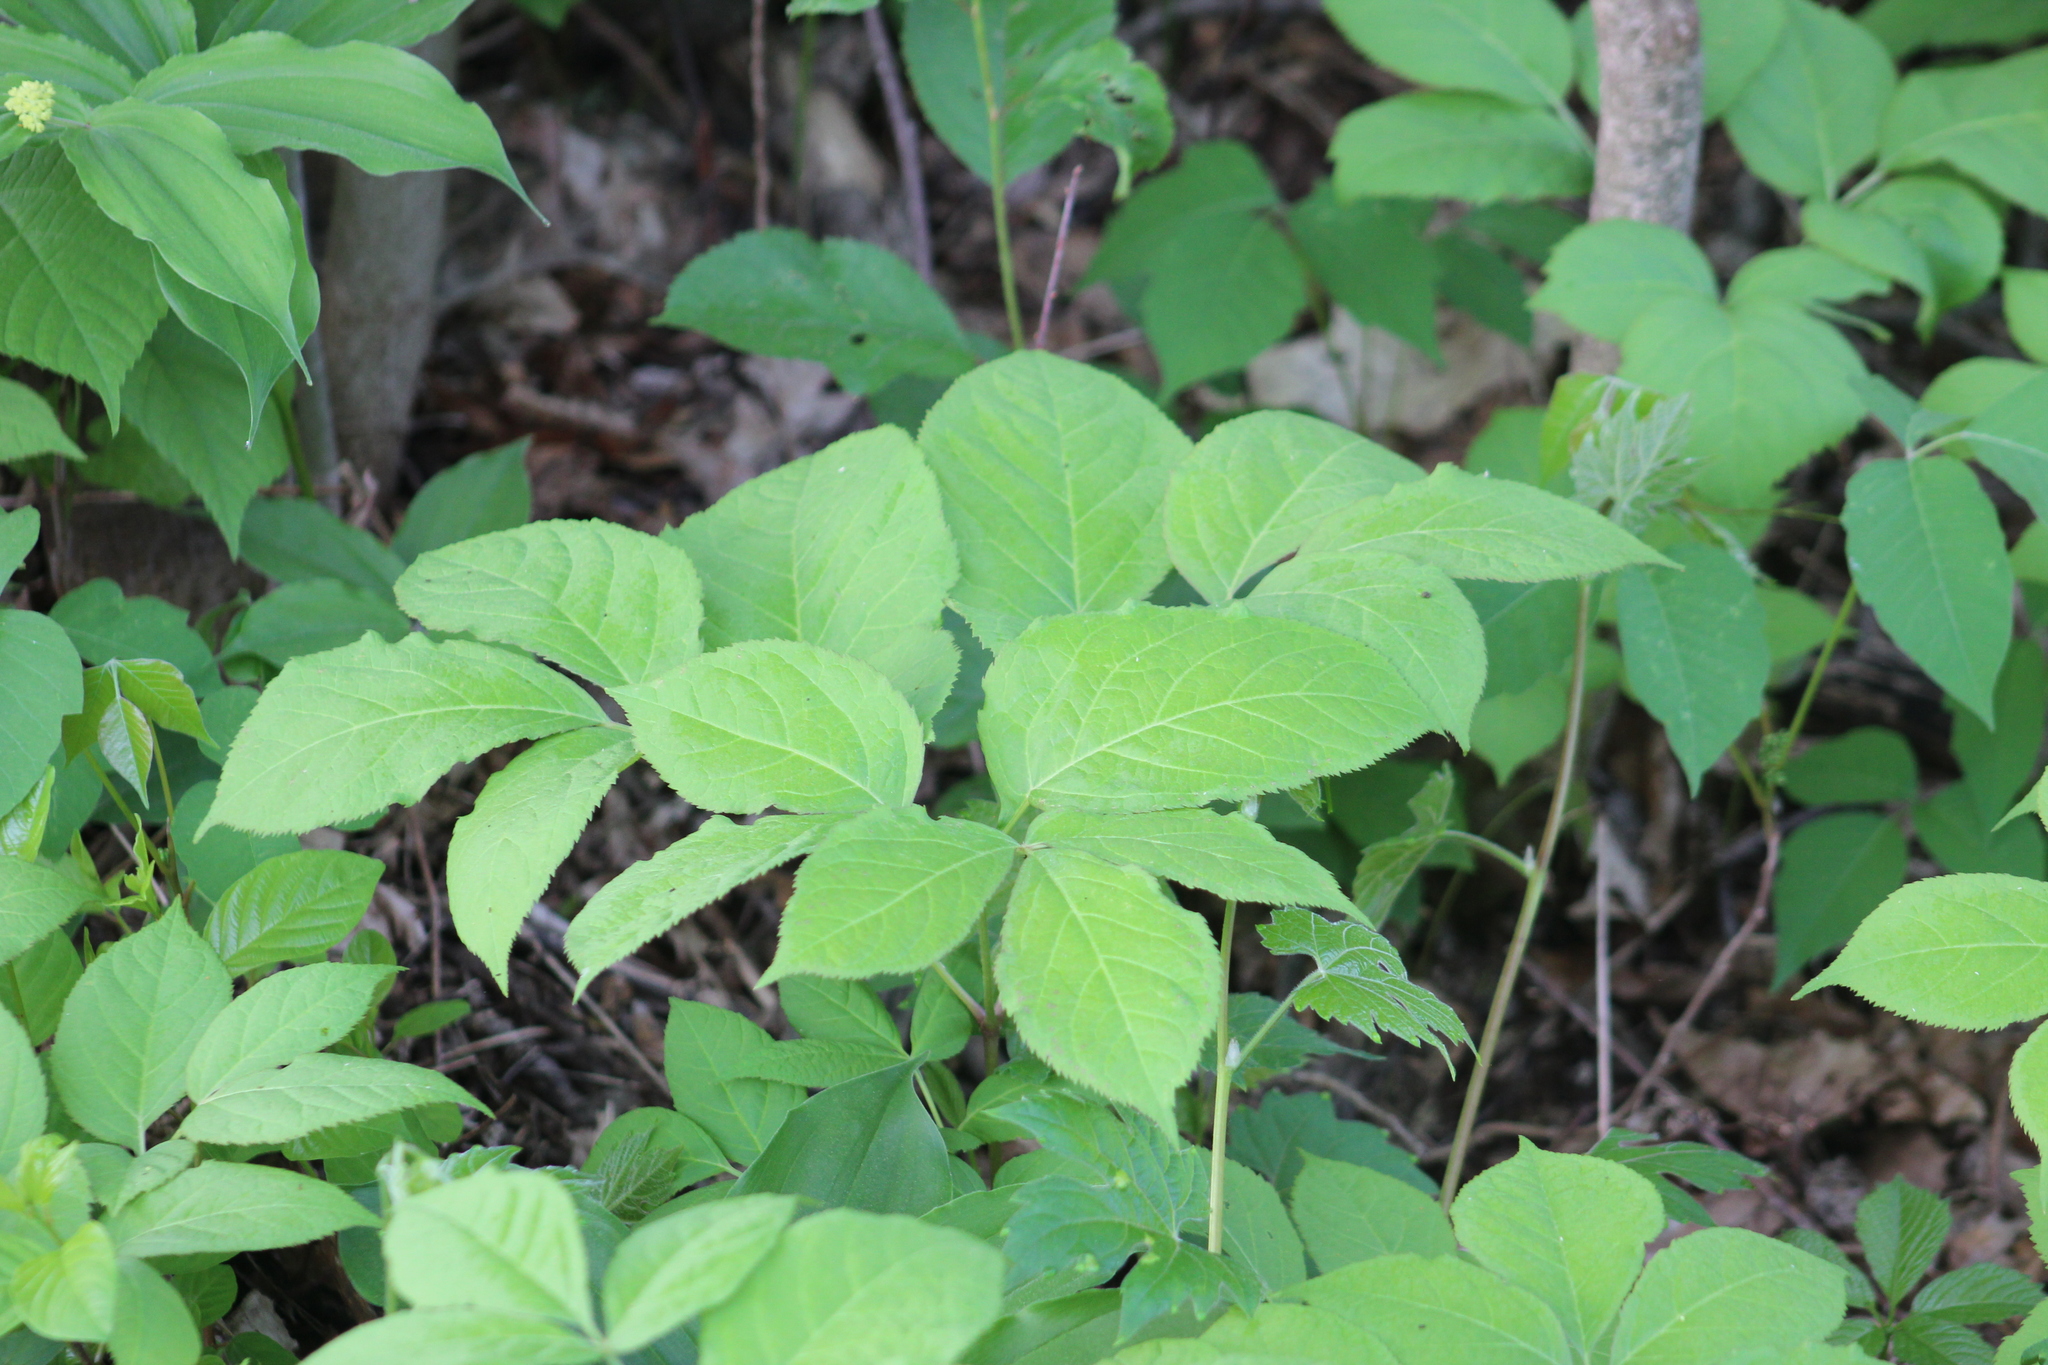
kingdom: Plantae
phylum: Tracheophyta
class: Magnoliopsida
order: Apiales
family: Araliaceae
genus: Aralia
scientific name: Aralia nudicaulis
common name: Wild sarsaparilla
